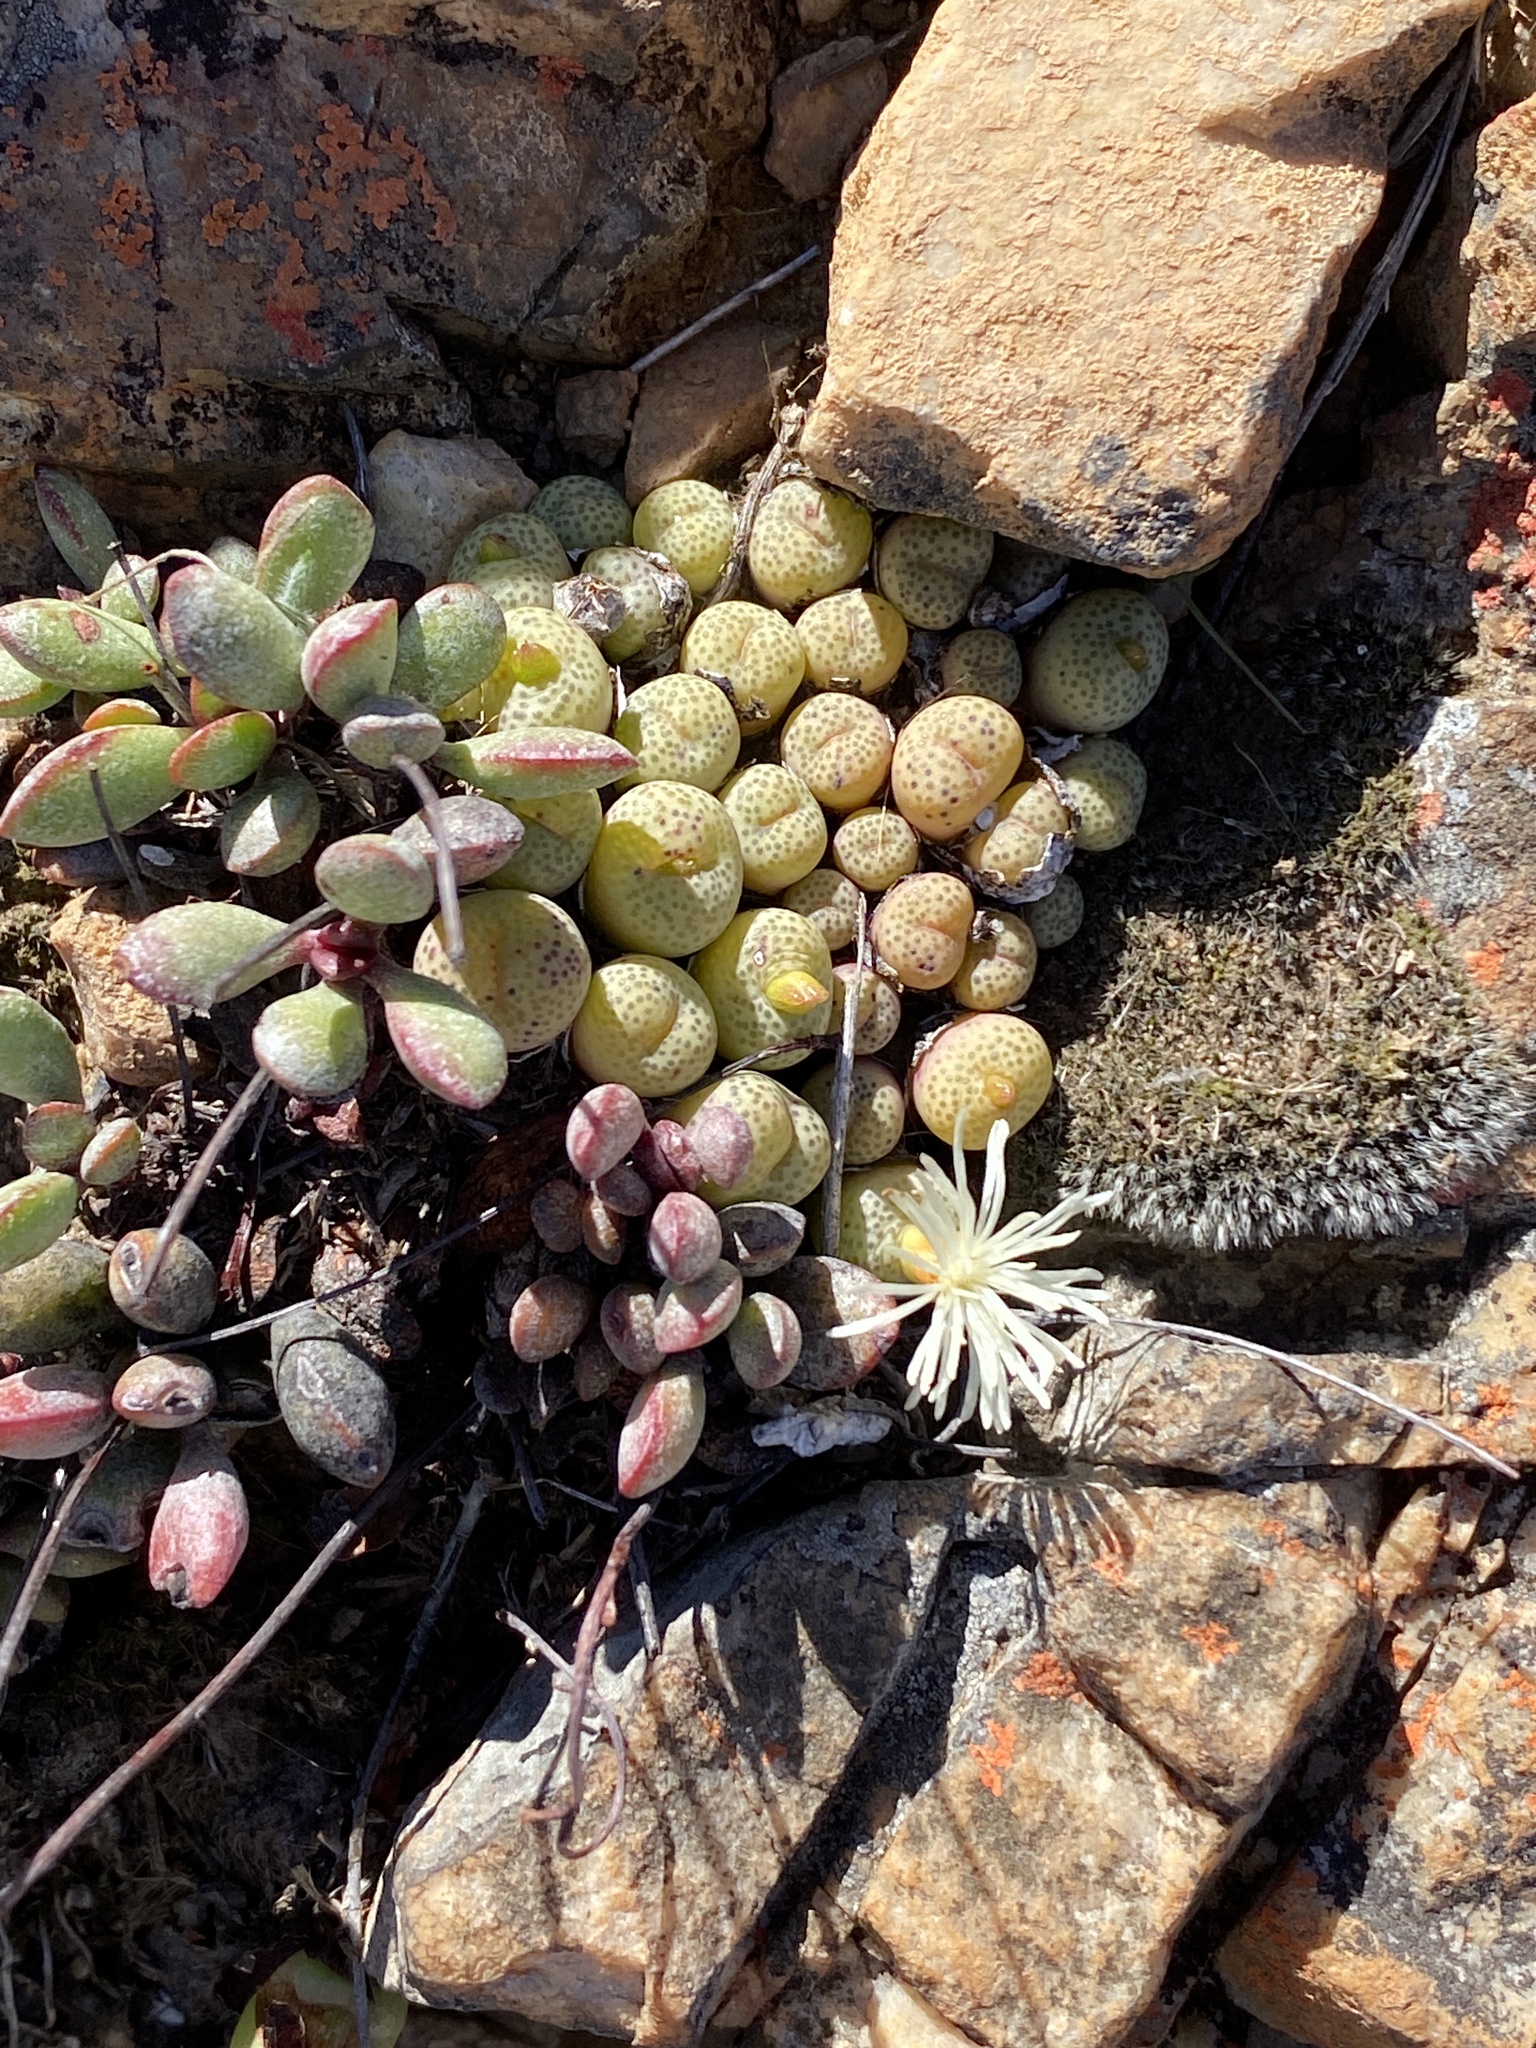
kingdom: Plantae
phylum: Tracheophyta
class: Magnoliopsida
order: Caryophyllales
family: Aizoaceae
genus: Conophytum
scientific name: Conophytum truncatum
